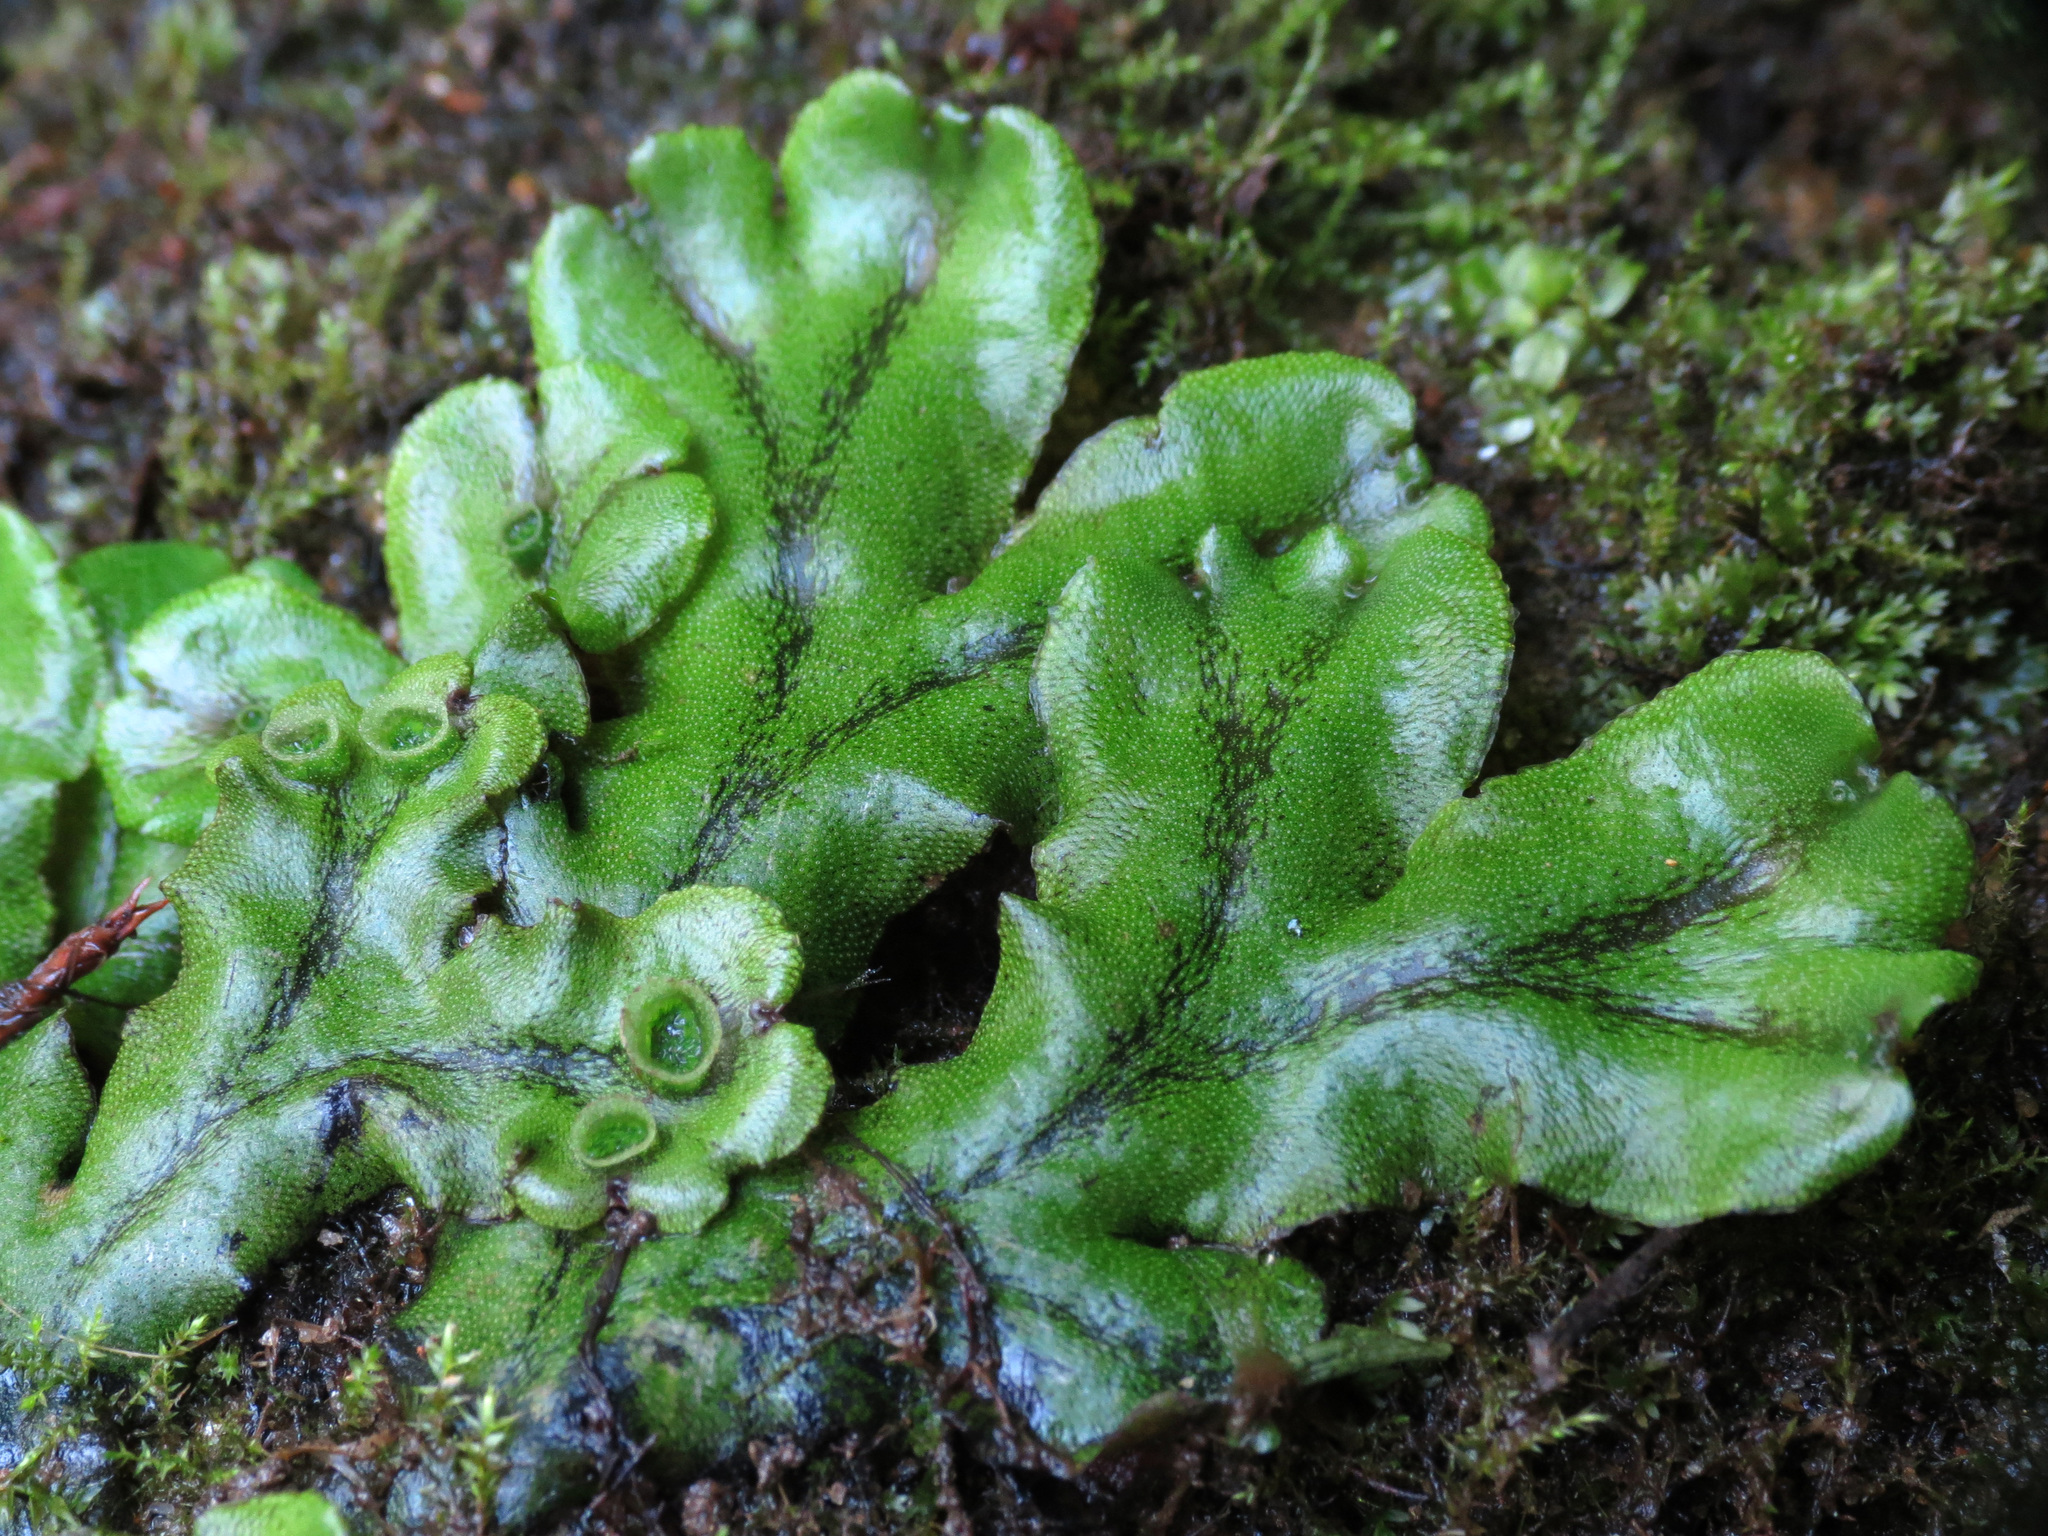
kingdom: Plantae
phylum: Marchantiophyta
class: Marchantiopsida
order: Marchantiales
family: Marchantiaceae
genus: Marchantia
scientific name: Marchantia polymorpha
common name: Common liverwort
